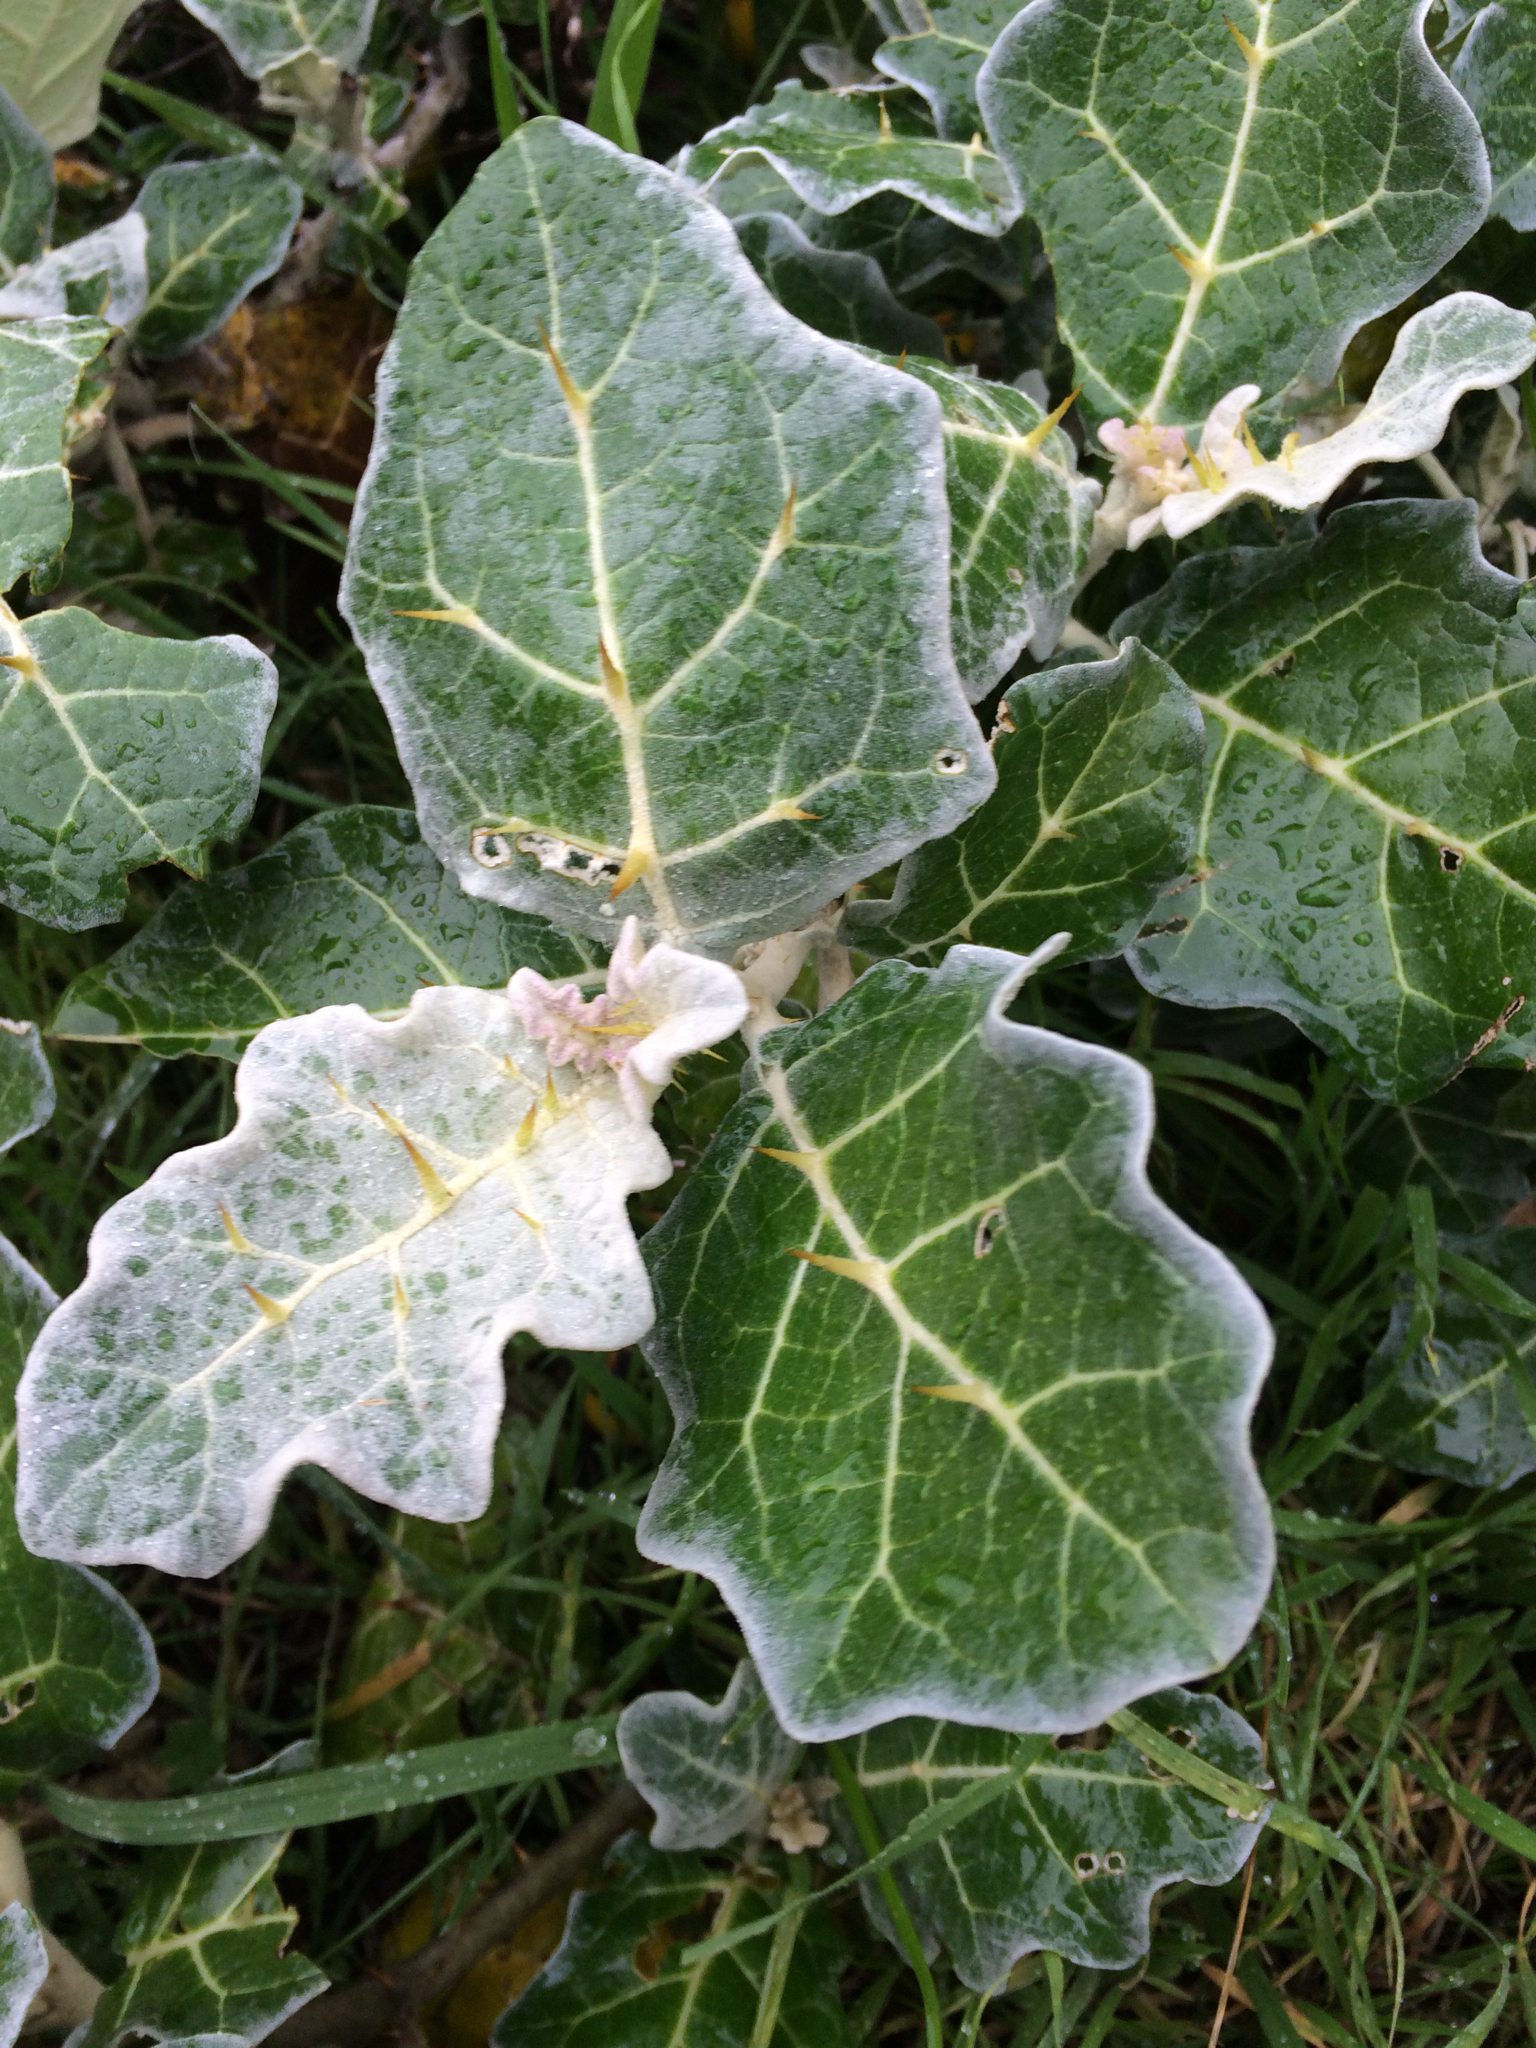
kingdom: Plantae
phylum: Tracheophyta
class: Magnoliopsida
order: Solanales
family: Solanaceae
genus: Solanum
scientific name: Solanum marginatum
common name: Purple african nightshade
